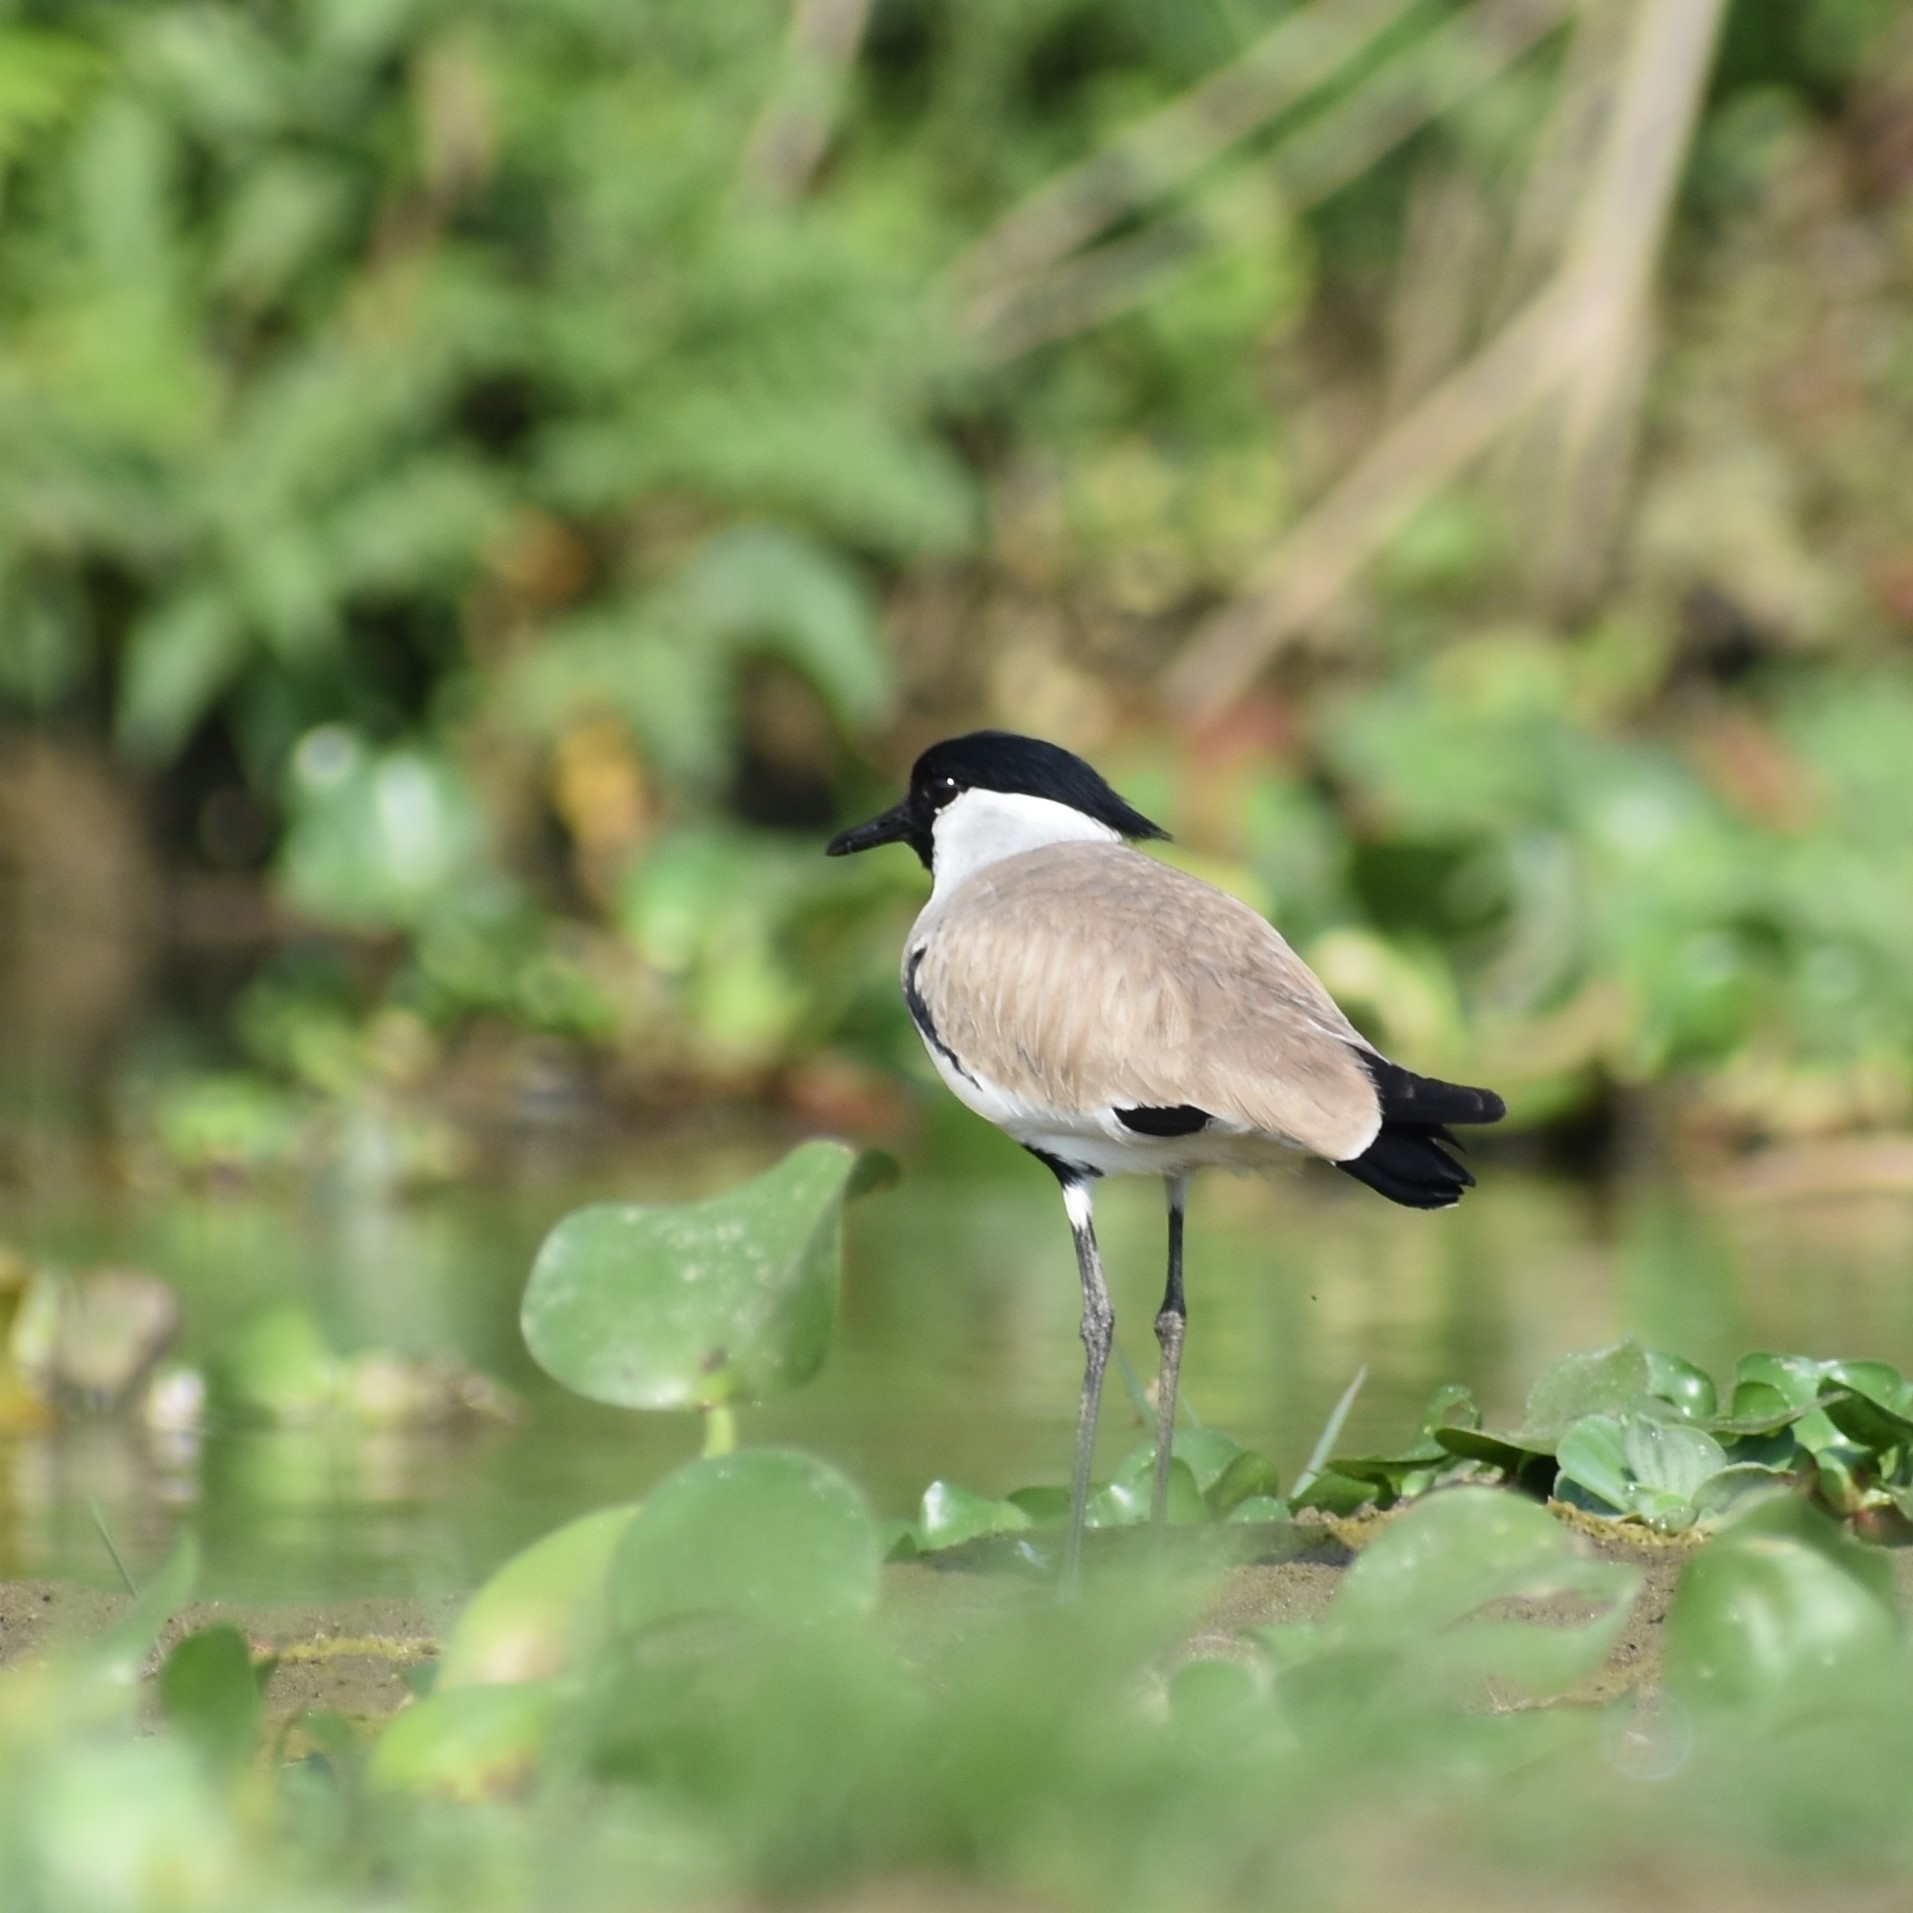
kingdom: Animalia
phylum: Chordata
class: Aves
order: Charadriiformes
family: Charadriidae
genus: Vanellus
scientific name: Vanellus duvaucelii
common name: River lapwing
